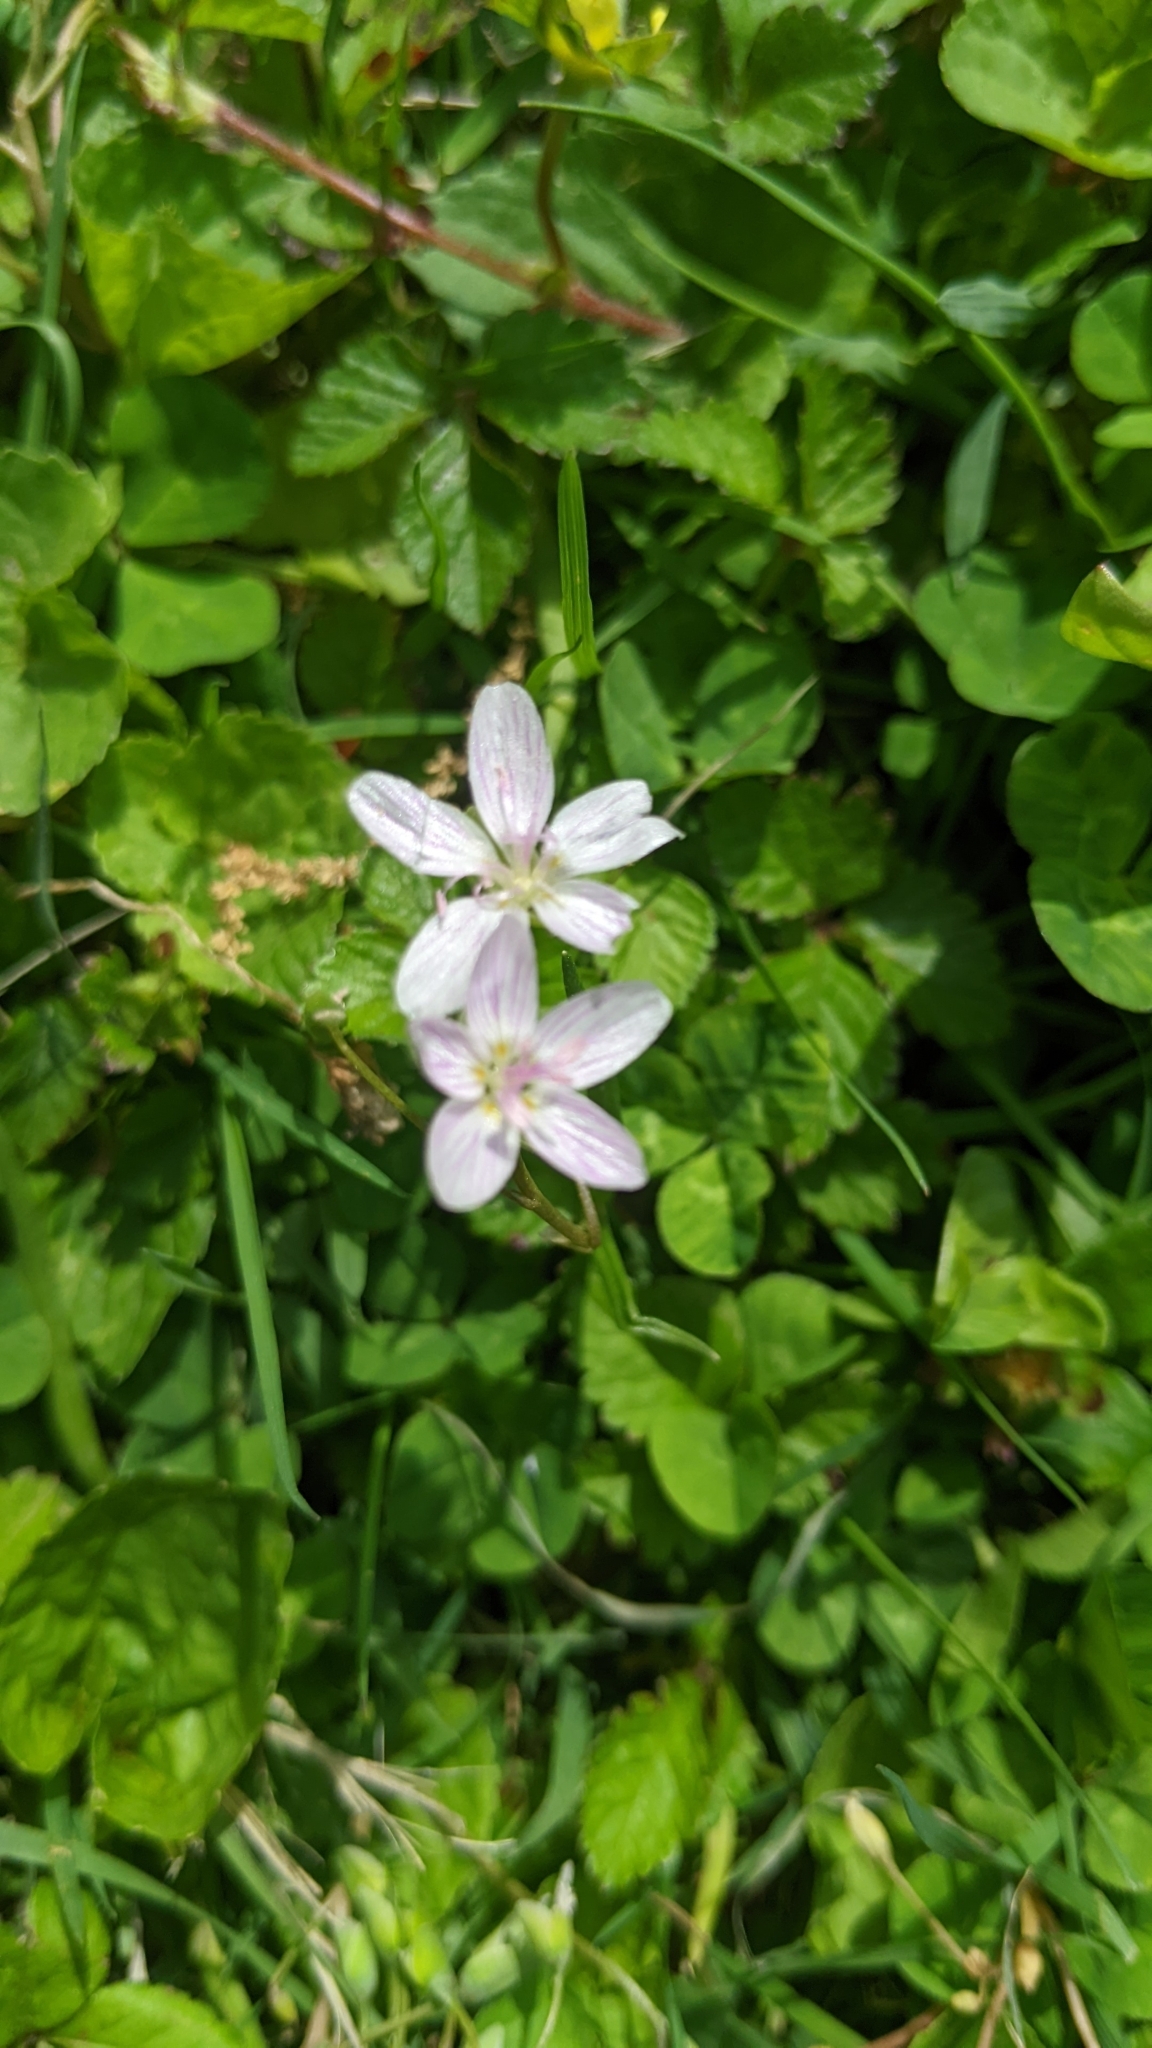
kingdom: Plantae
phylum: Tracheophyta
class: Magnoliopsida
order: Caryophyllales
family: Montiaceae
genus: Claytonia
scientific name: Claytonia virginica
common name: Virginia springbeauty
